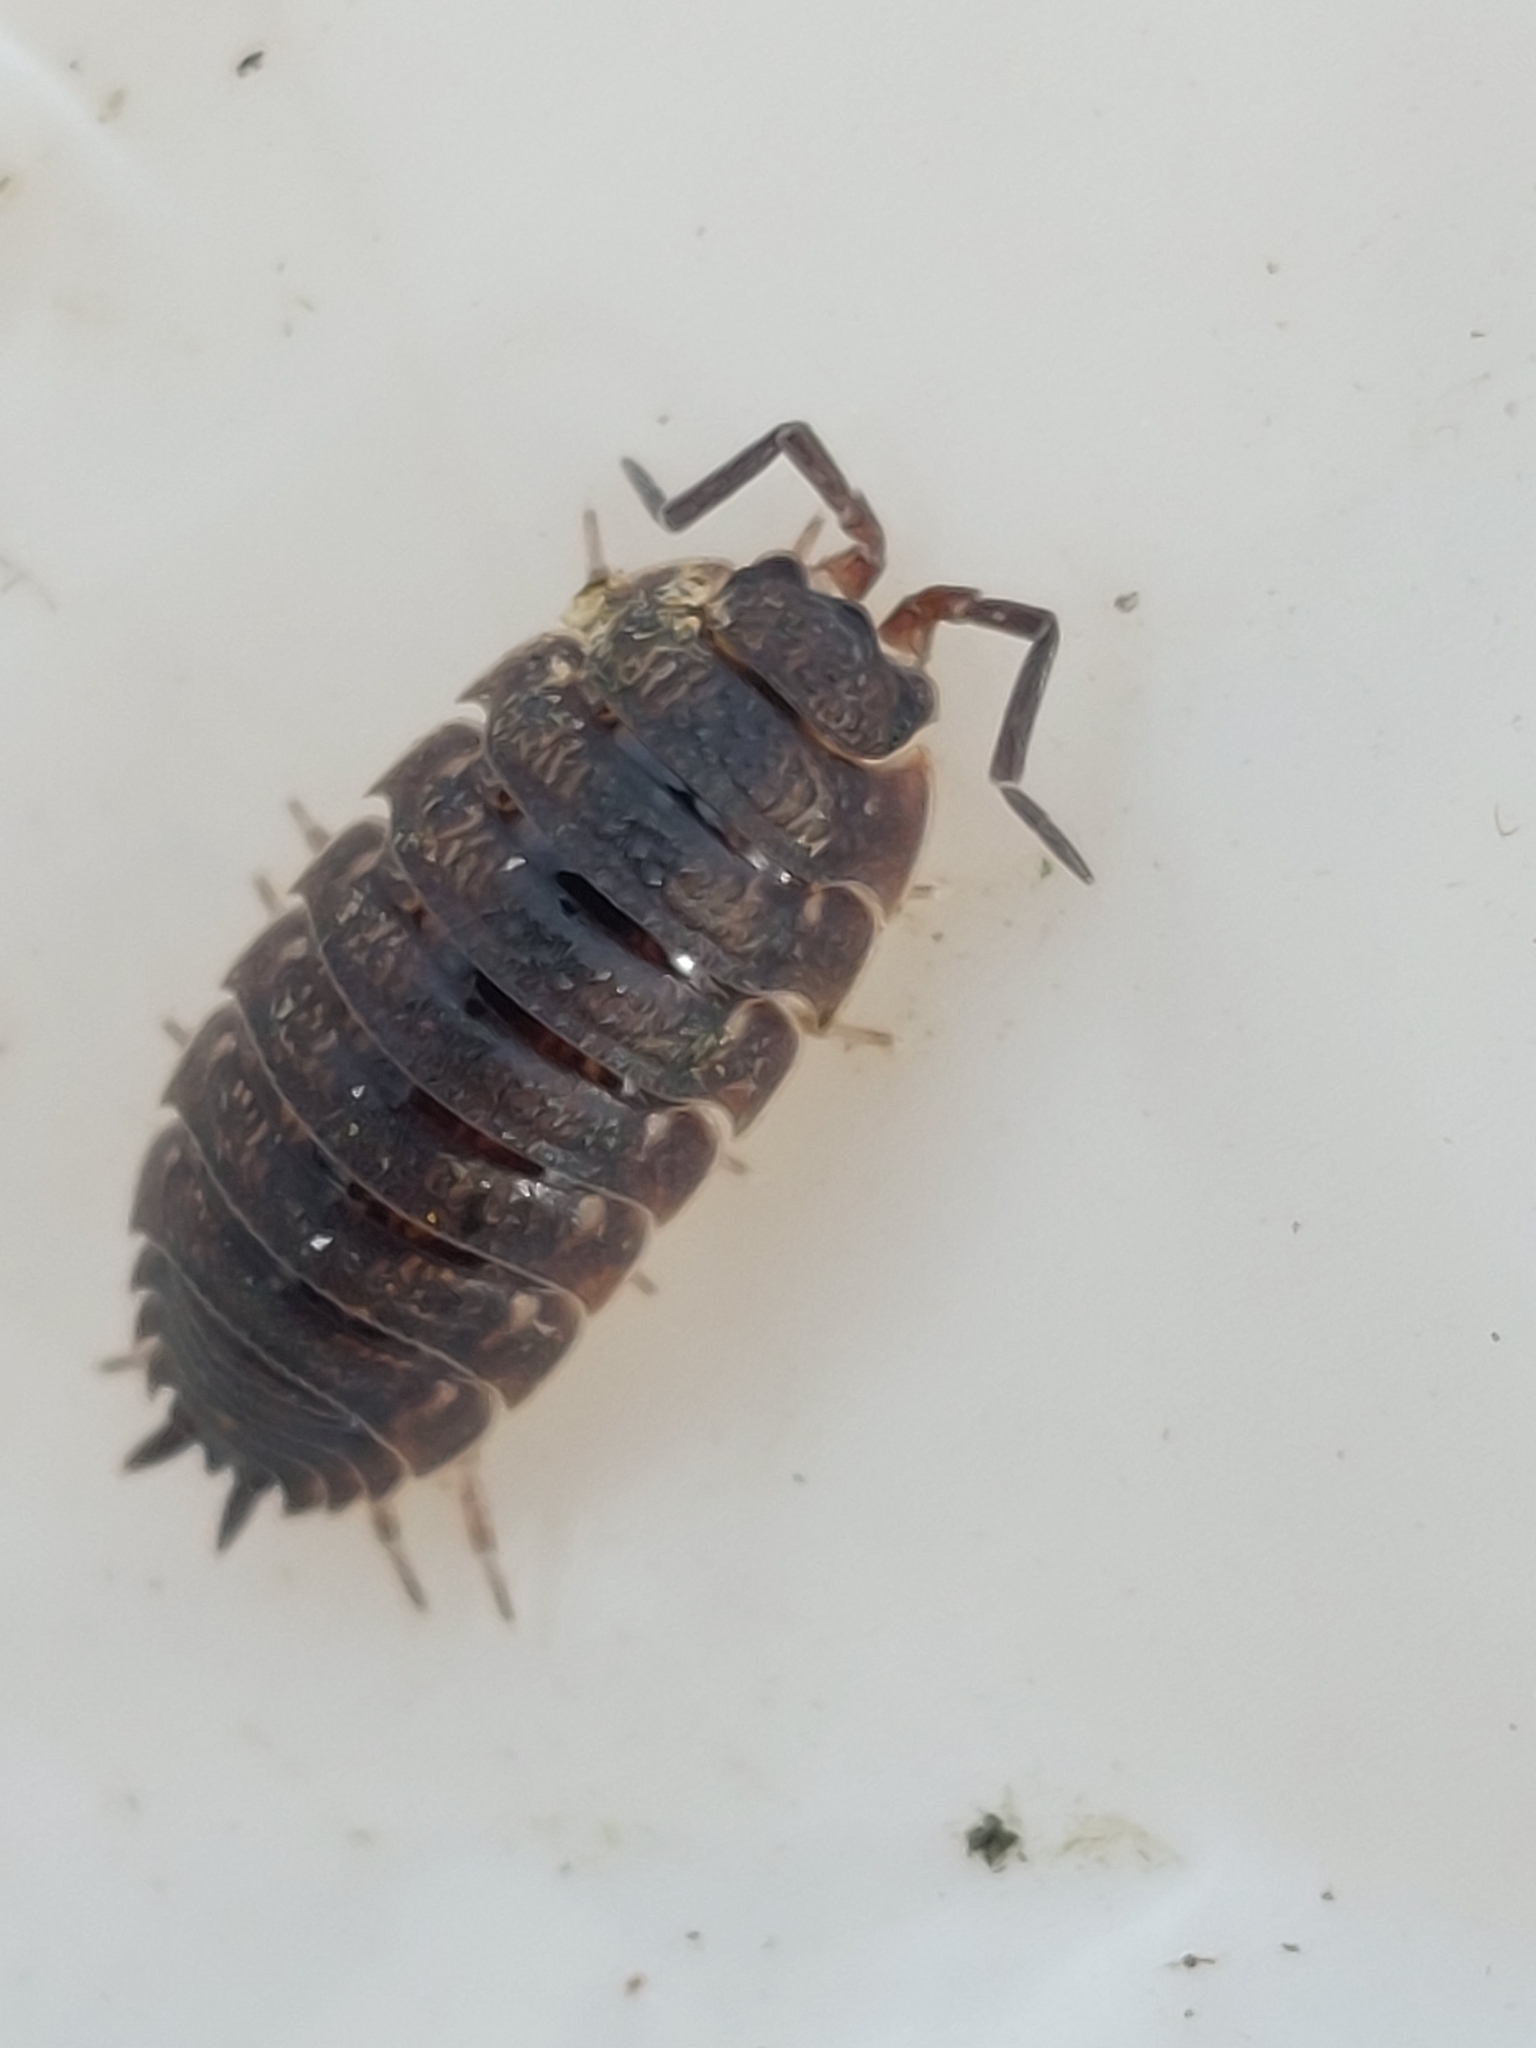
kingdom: Animalia
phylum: Arthropoda
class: Malacostraca
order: Isopoda
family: Porcellionidae
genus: Porcellio
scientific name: Porcellio scaber
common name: Common rough woodlouse
